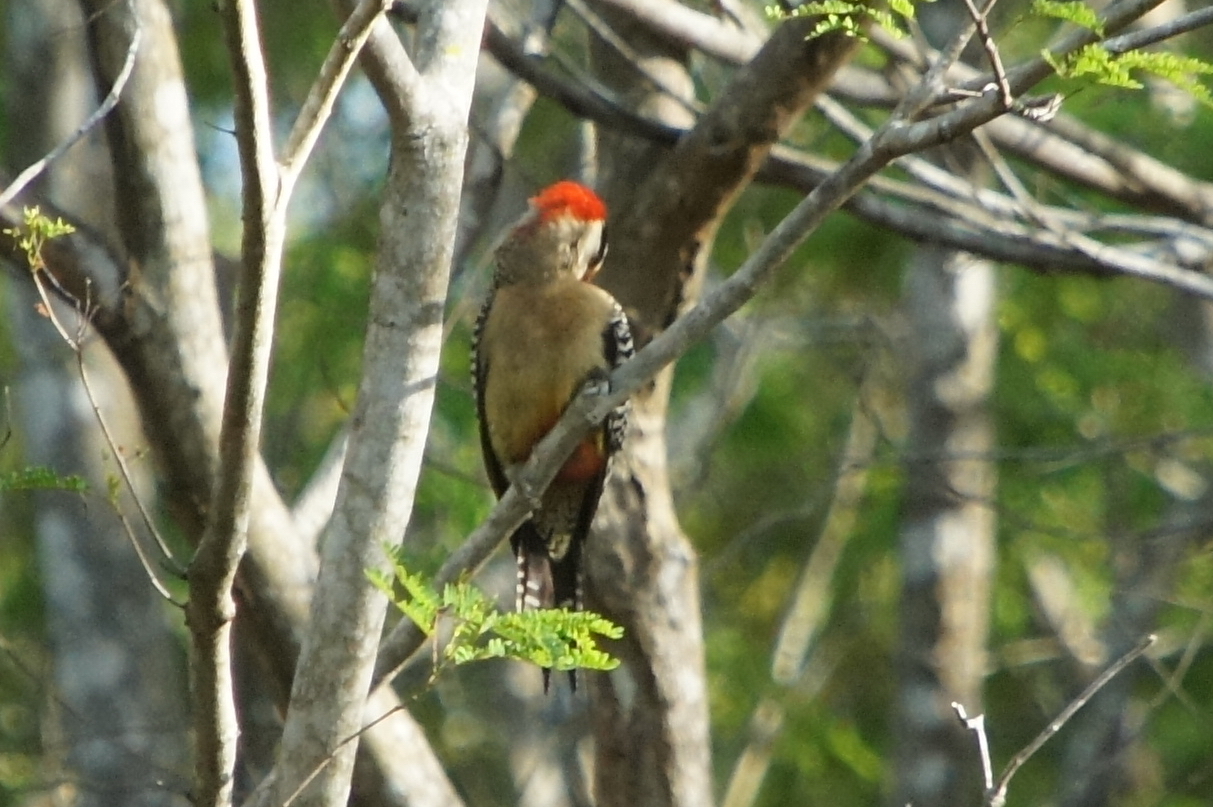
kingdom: Animalia
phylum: Chordata
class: Aves
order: Piciformes
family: Picidae
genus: Melanerpes
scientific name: Melanerpes superciliaris
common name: West indian woodpecker
